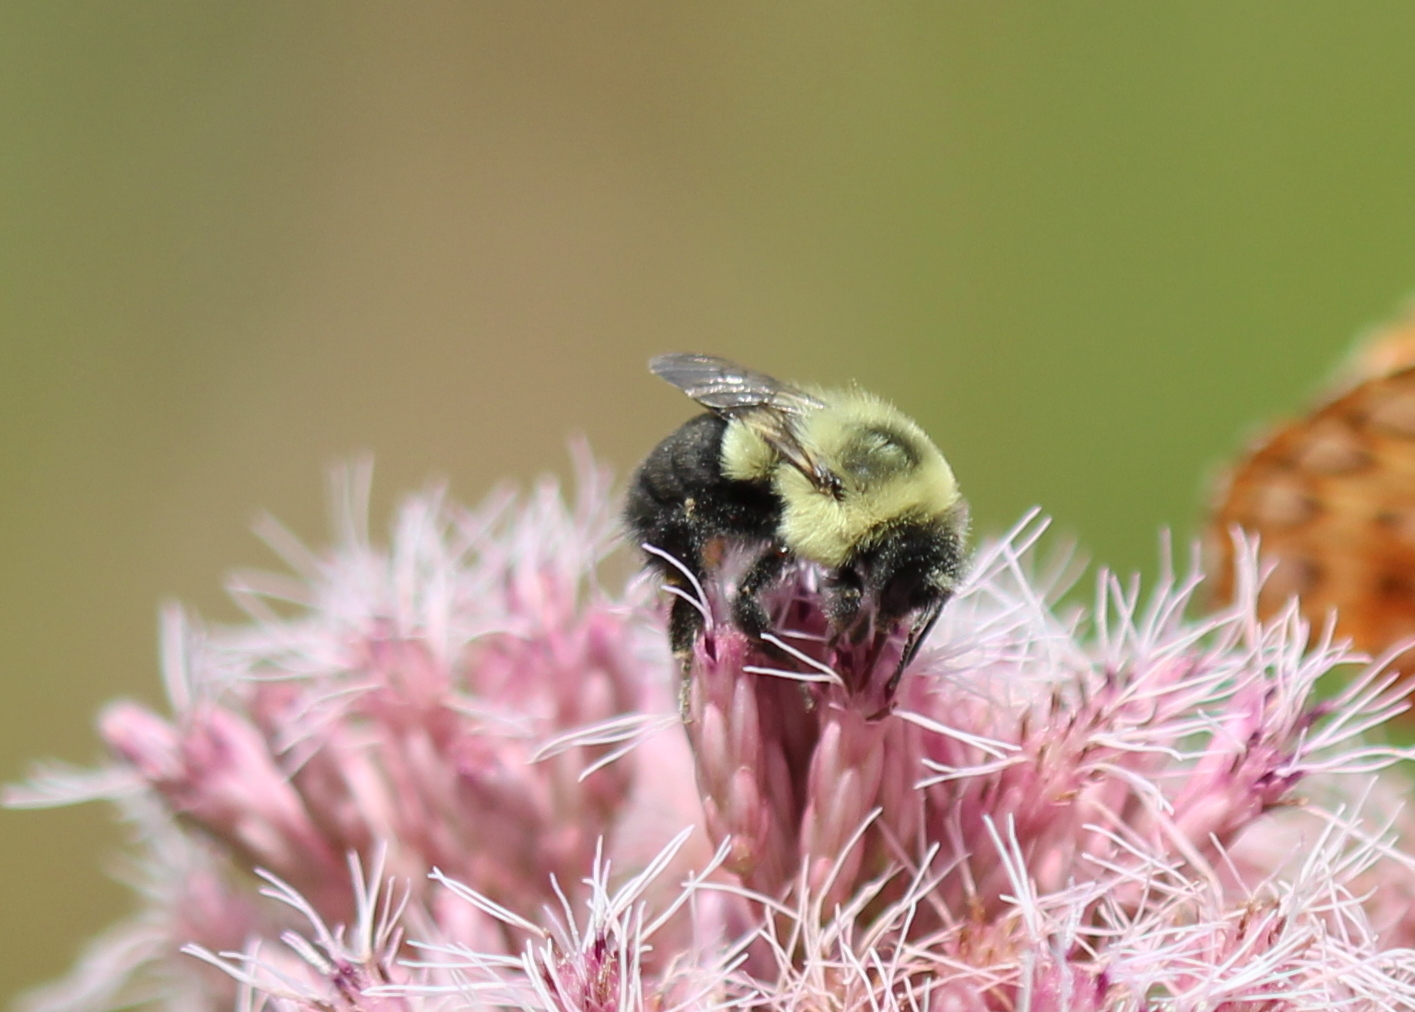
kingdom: Animalia
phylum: Arthropoda
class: Insecta
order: Hymenoptera
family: Apidae
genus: Bombus
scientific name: Bombus impatiens
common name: Common eastern bumble bee
